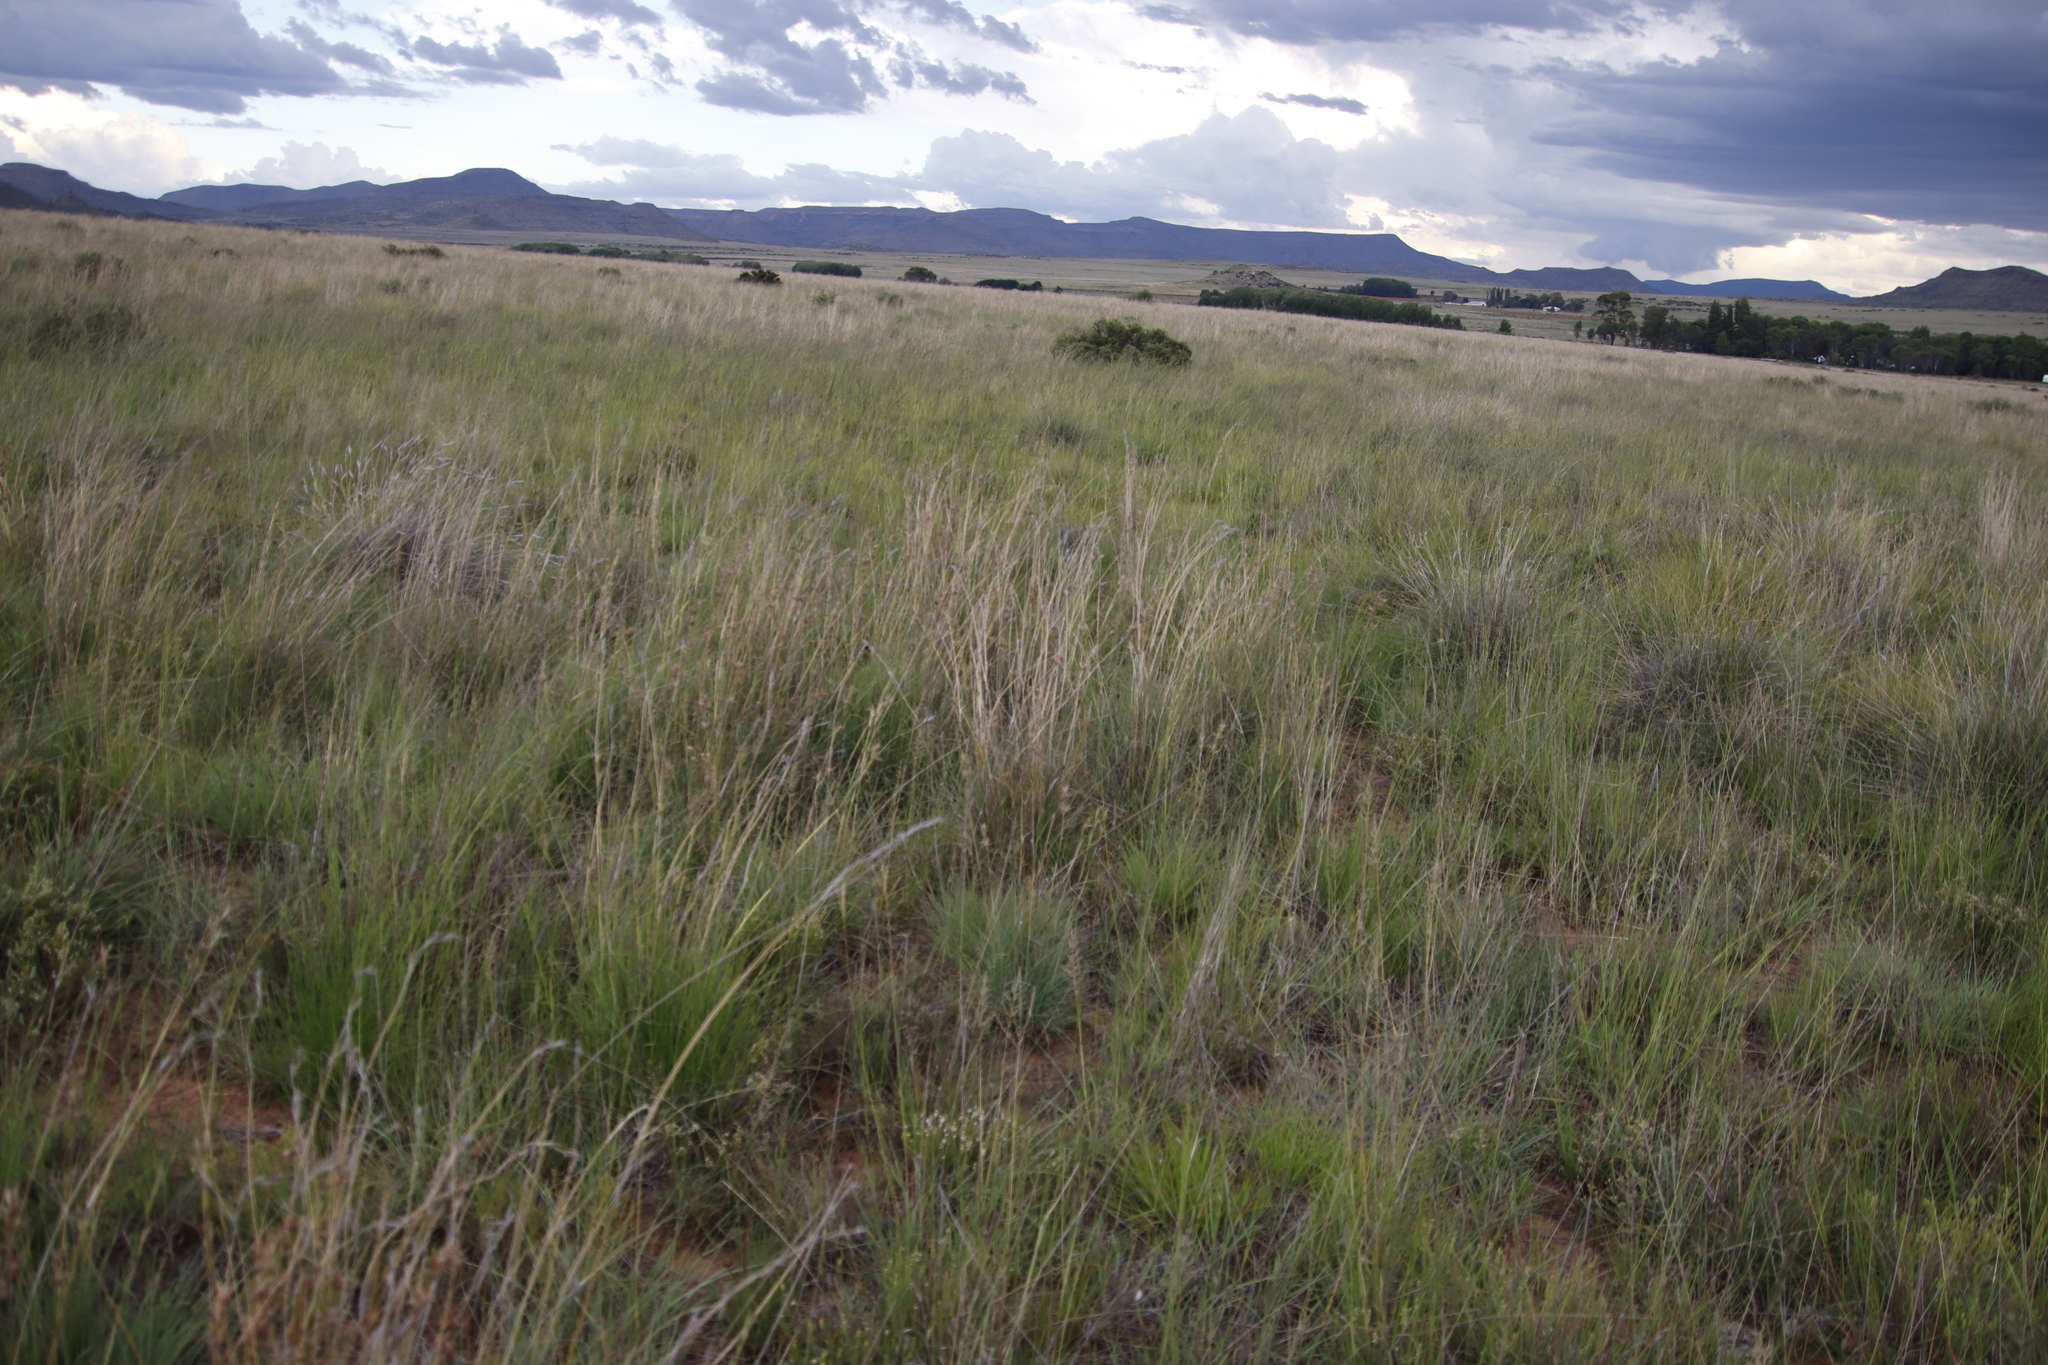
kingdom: Plantae
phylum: Tracheophyta
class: Liliopsida
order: Poales
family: Poaceae
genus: Themeda
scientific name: Themeda triandra
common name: Kangaroo grass
